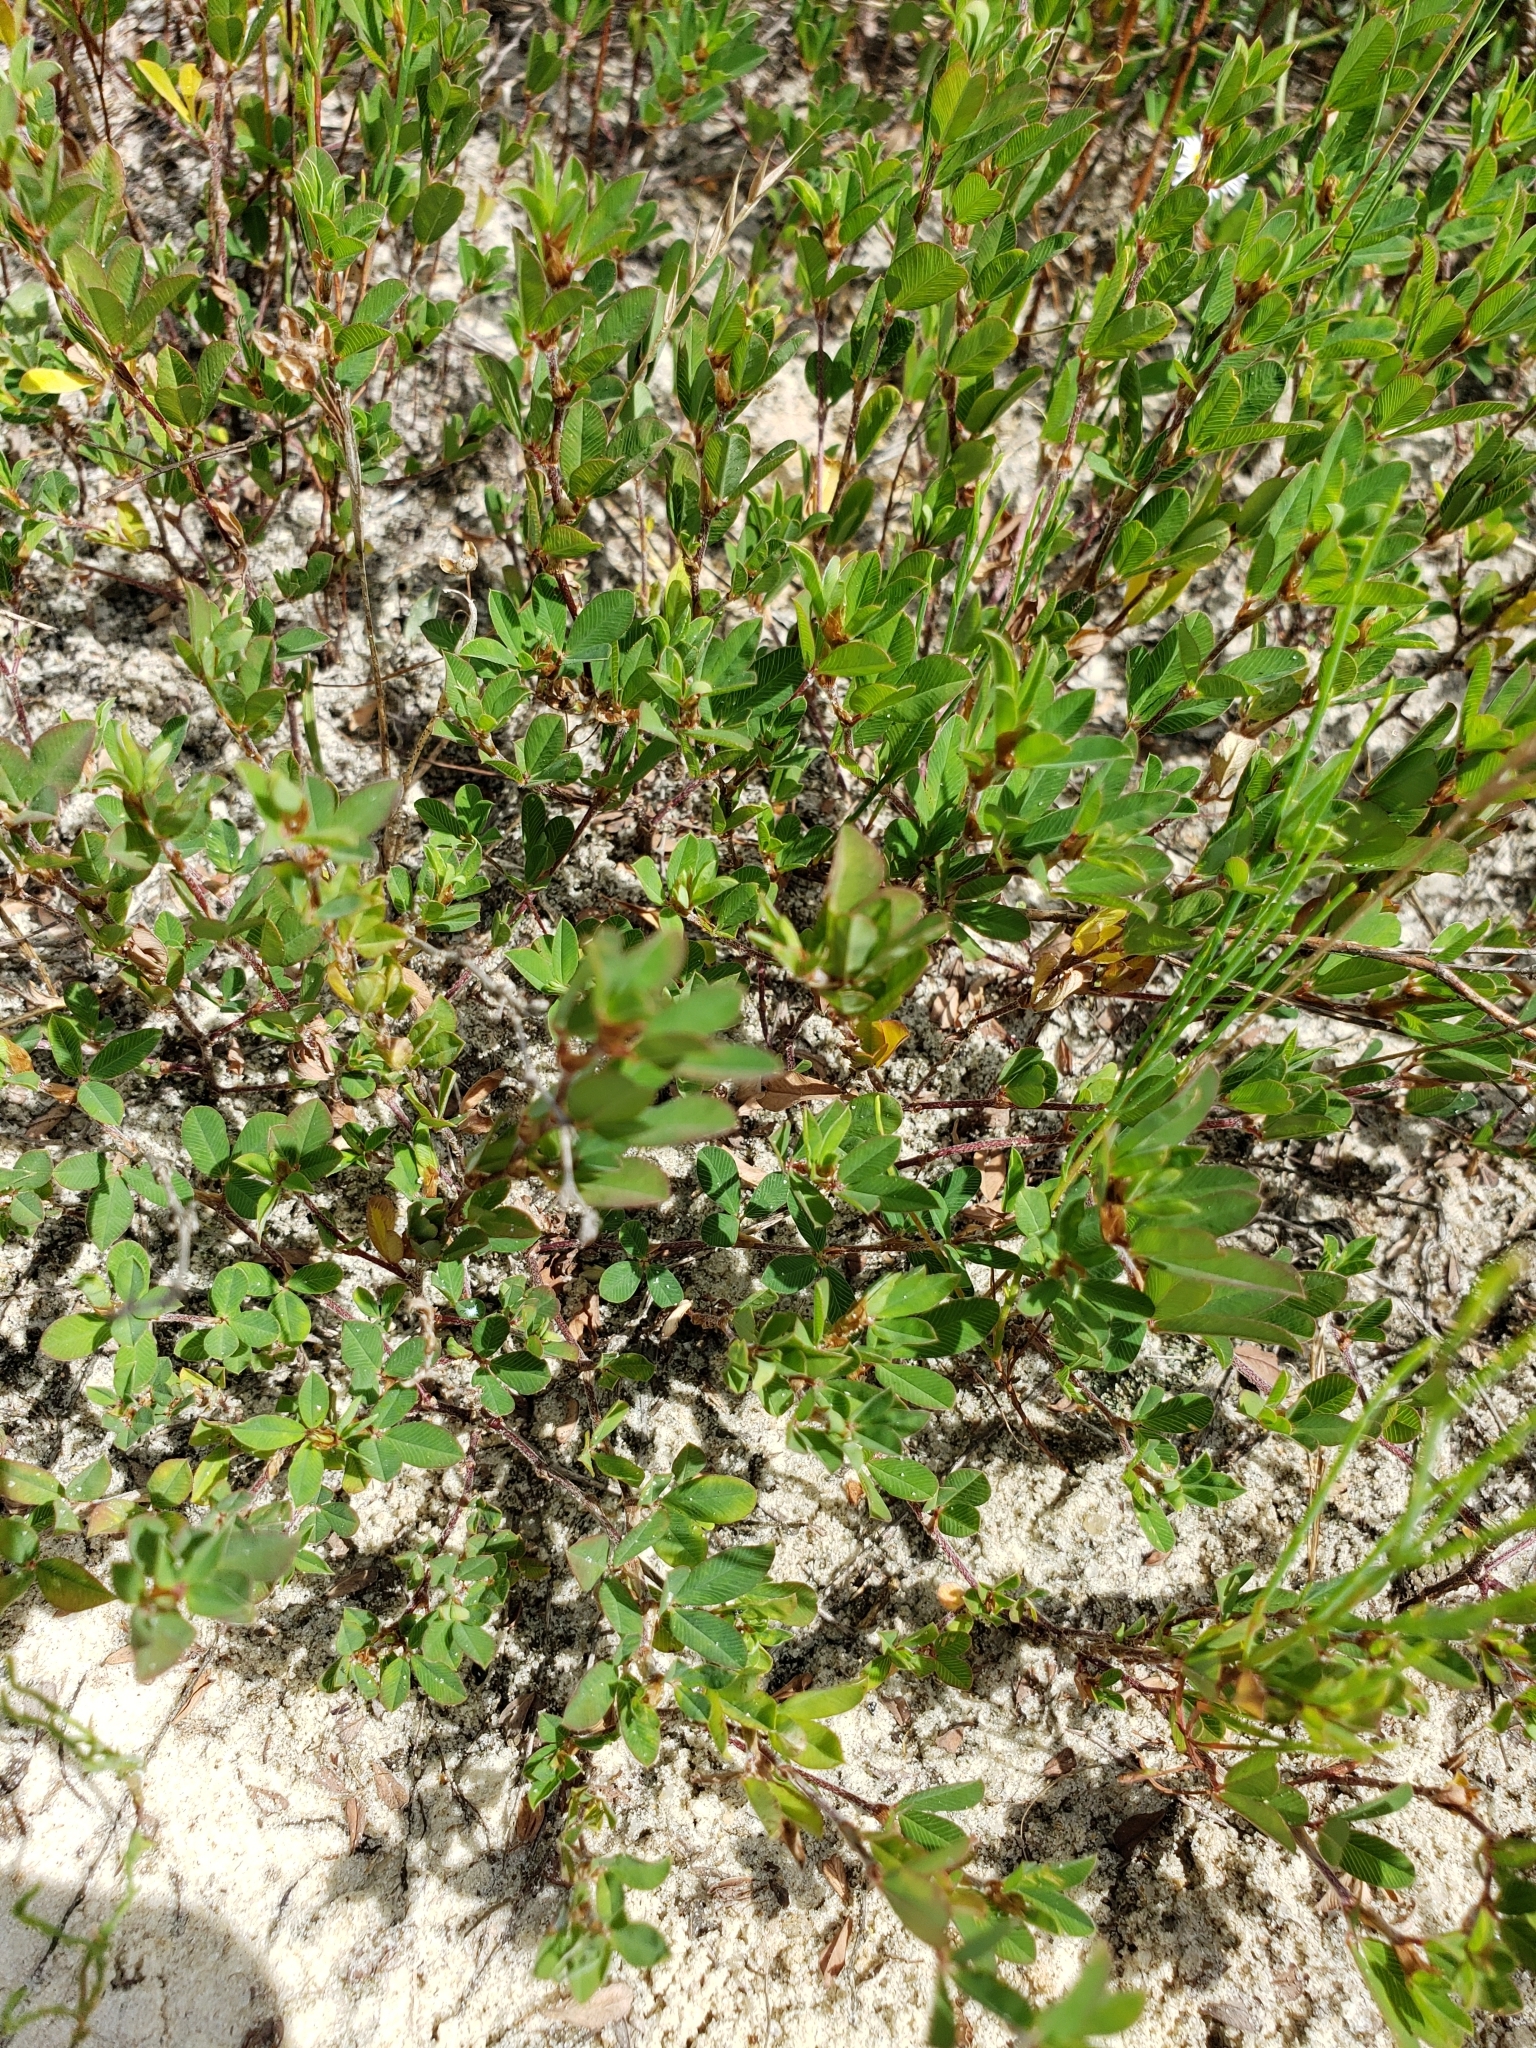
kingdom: Plantae
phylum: Tracheophyta
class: Magnoliopsida
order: Fabales
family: Fabaceae
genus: Kummerowia
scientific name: Kummerowia striata
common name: Japanese clover
